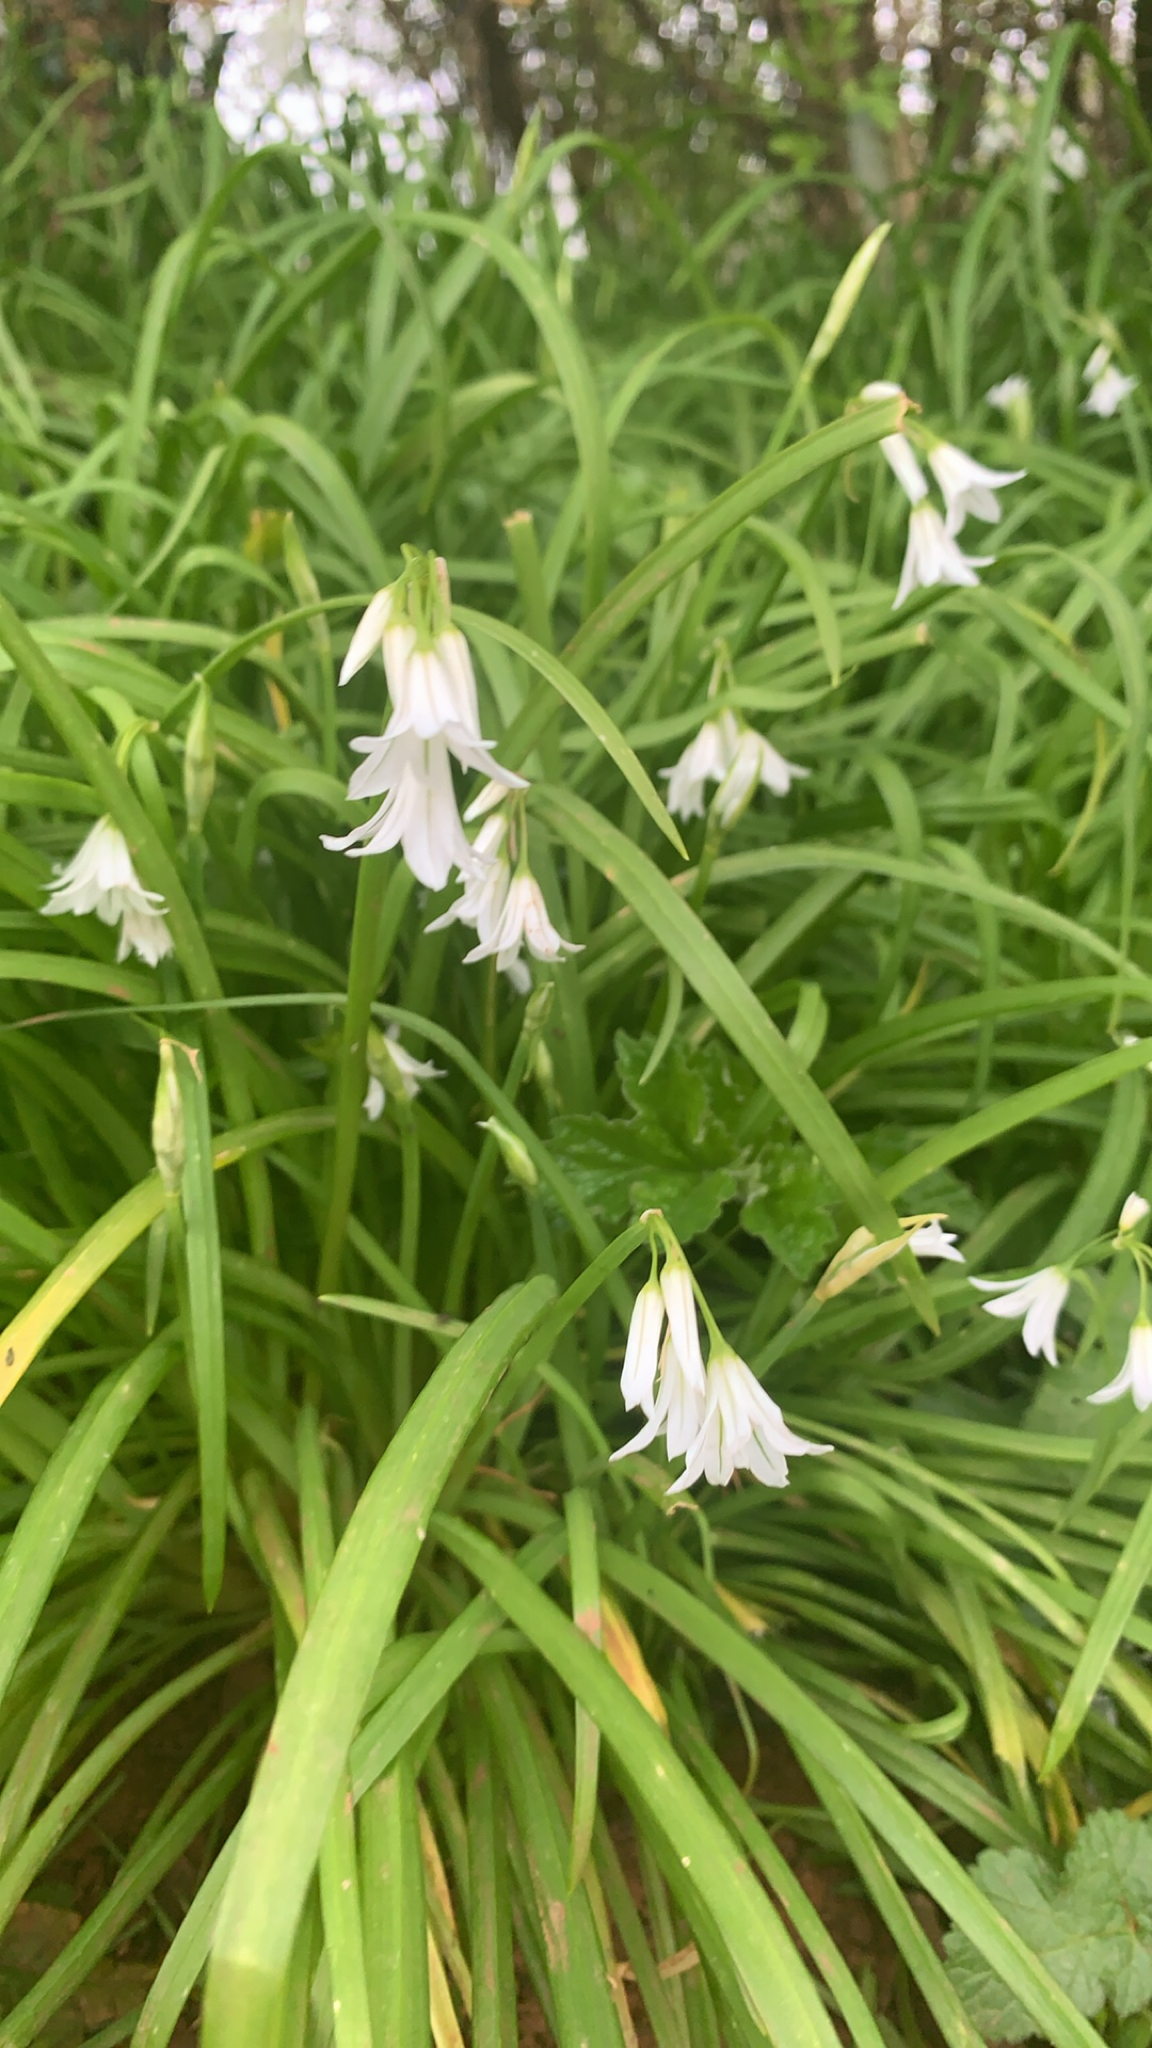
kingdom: Plantae
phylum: Tracheophyta
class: Liliopsida
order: Asparagales
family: Amaryllidaceae
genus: Allium
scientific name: Allium triquetrum
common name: Three-cornered garlic
